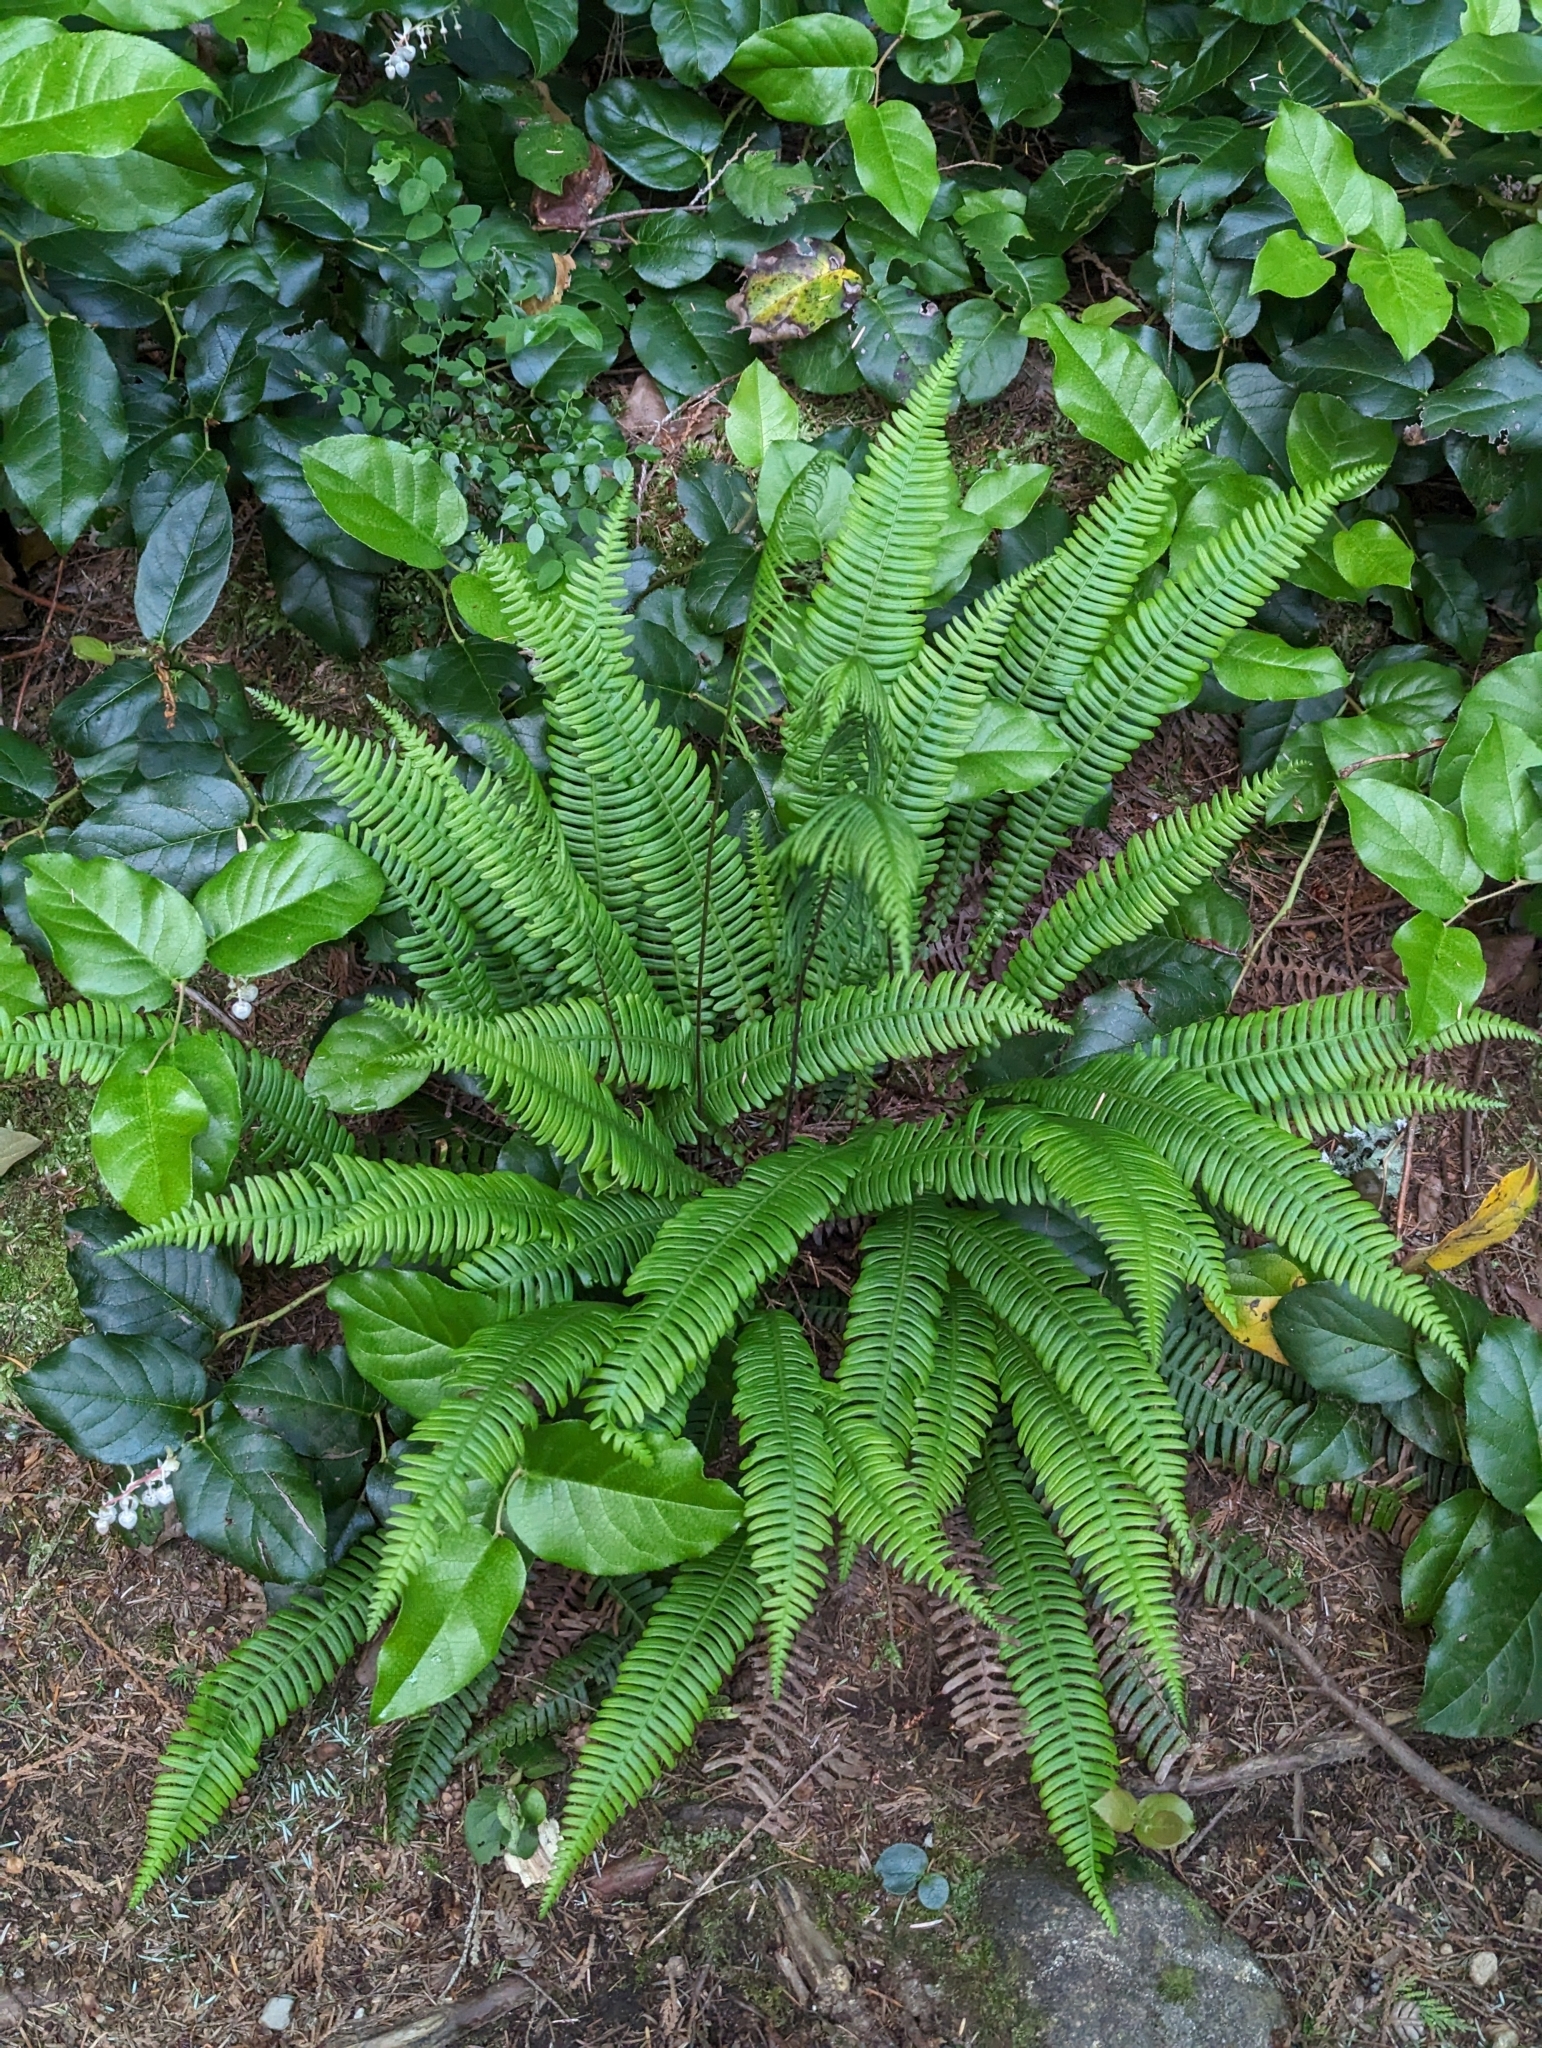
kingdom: Plantae
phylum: Tracheophyta
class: Polypodiopsida
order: Polypodiales
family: Blechnaceae
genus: Struthiopteris
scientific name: Struthiopteris spicant
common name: Deer fern
